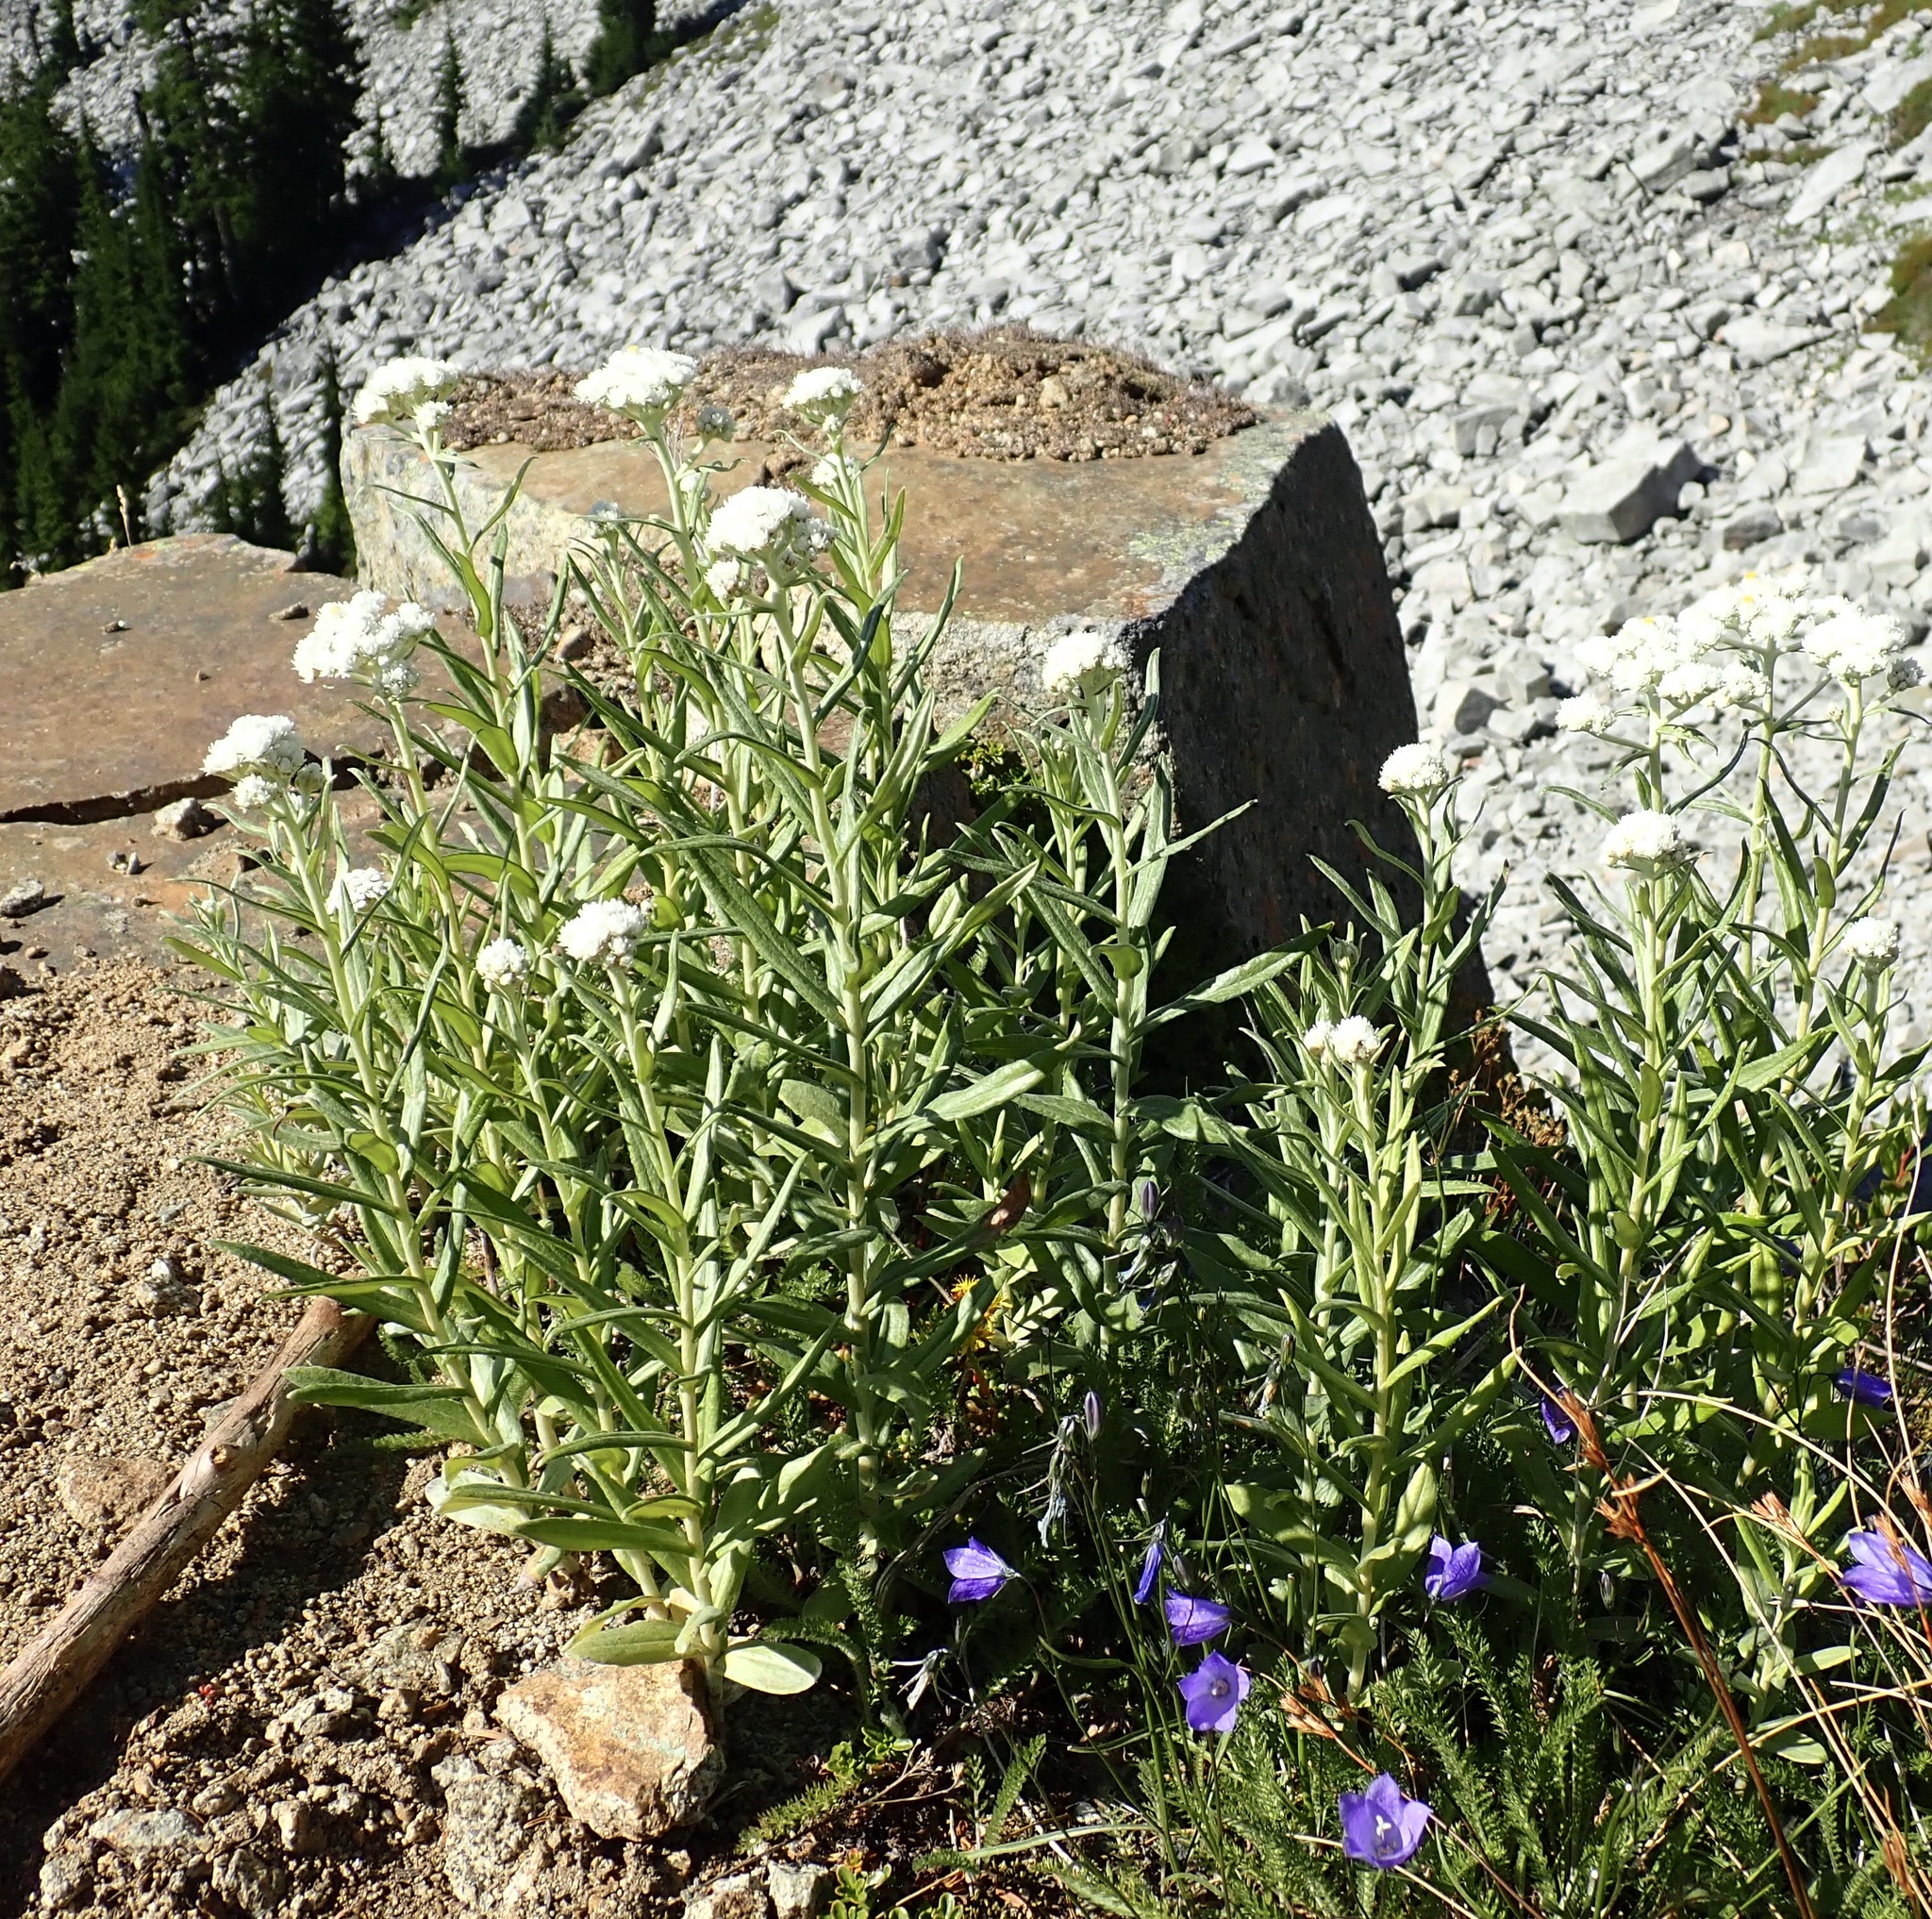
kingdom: Plantae
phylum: Tracheophyta
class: Magnoliopsida
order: Asterales
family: Asteraceae
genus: Anaphalis
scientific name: Anaphalis margaritacea
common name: Pearly everlasting
